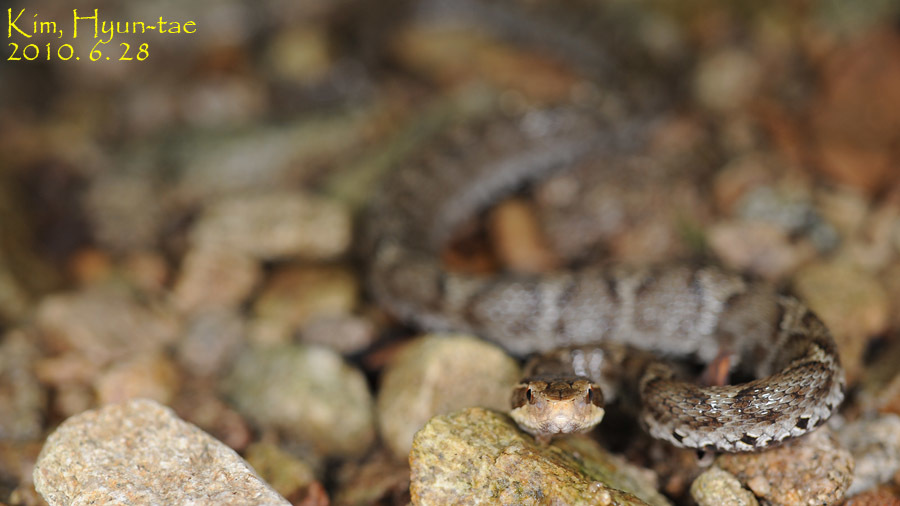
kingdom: Animalia
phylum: Chordata
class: Squamata
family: Viperidae
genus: Gloydius
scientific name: Gloydius ussuriensis
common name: Ussuri mamushi
